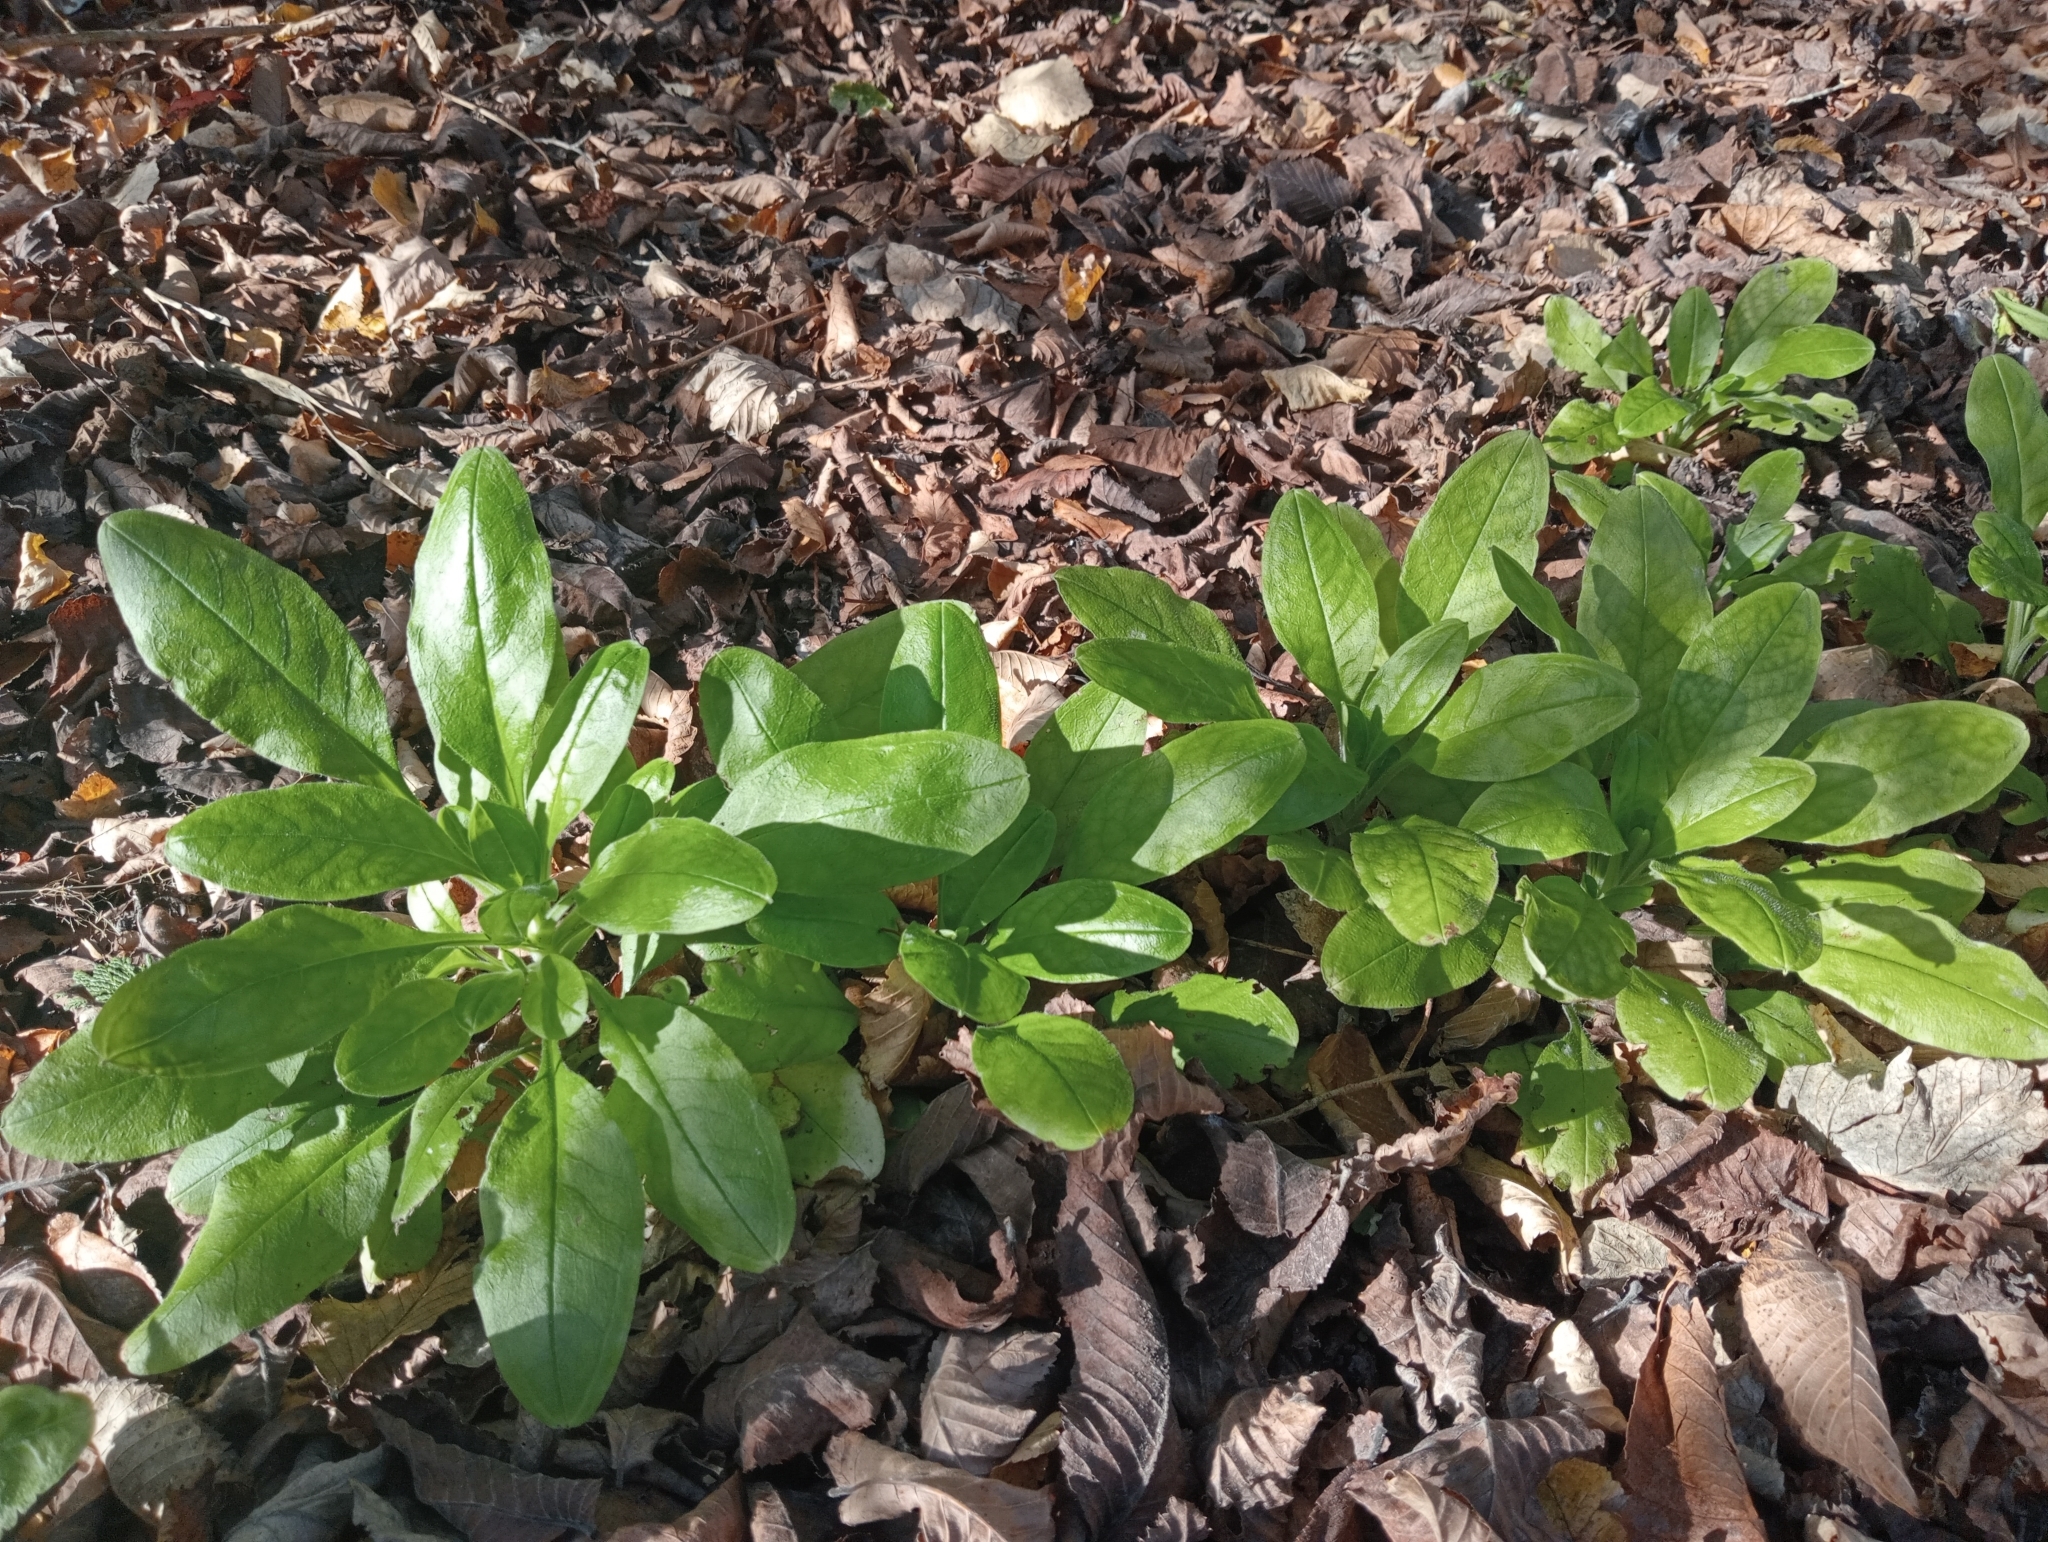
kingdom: Plantae
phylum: Tracheophyta
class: Magnoliopsida
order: Boraginales
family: Boraginaceae
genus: Myosotis
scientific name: Myosotis sylvatica
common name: Wood forget-me-not
